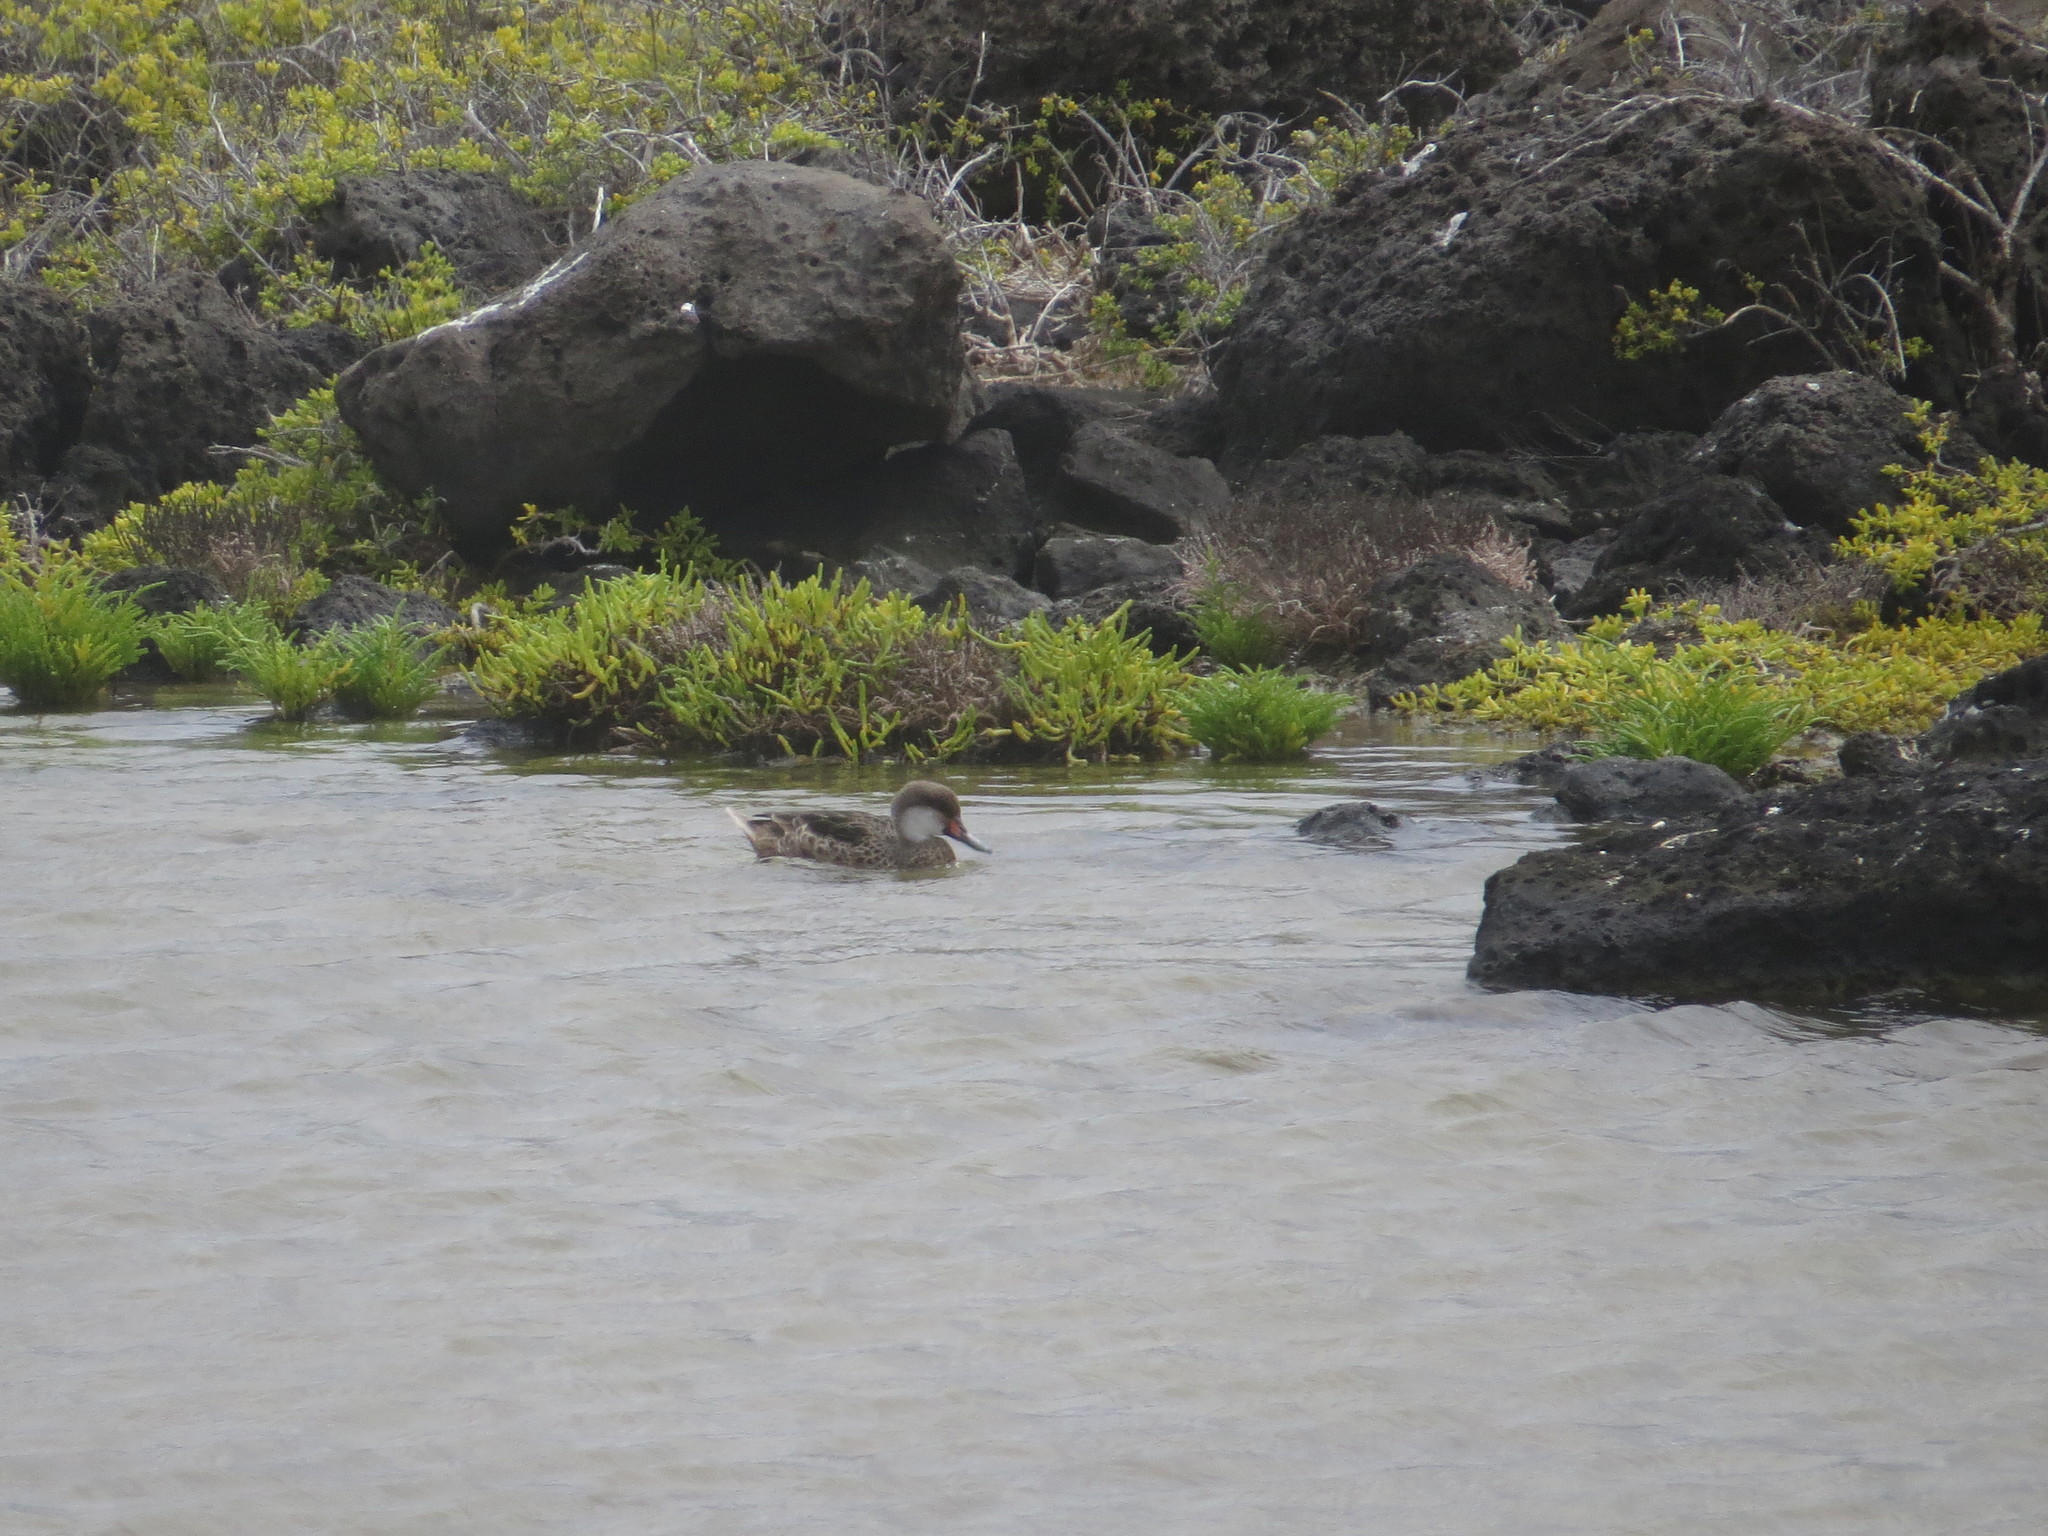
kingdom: Animalia
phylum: Chordata
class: Aves
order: Anseriformes
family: Anatidae
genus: Anas
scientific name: Anas bahamensis
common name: White-cheeked pintail
